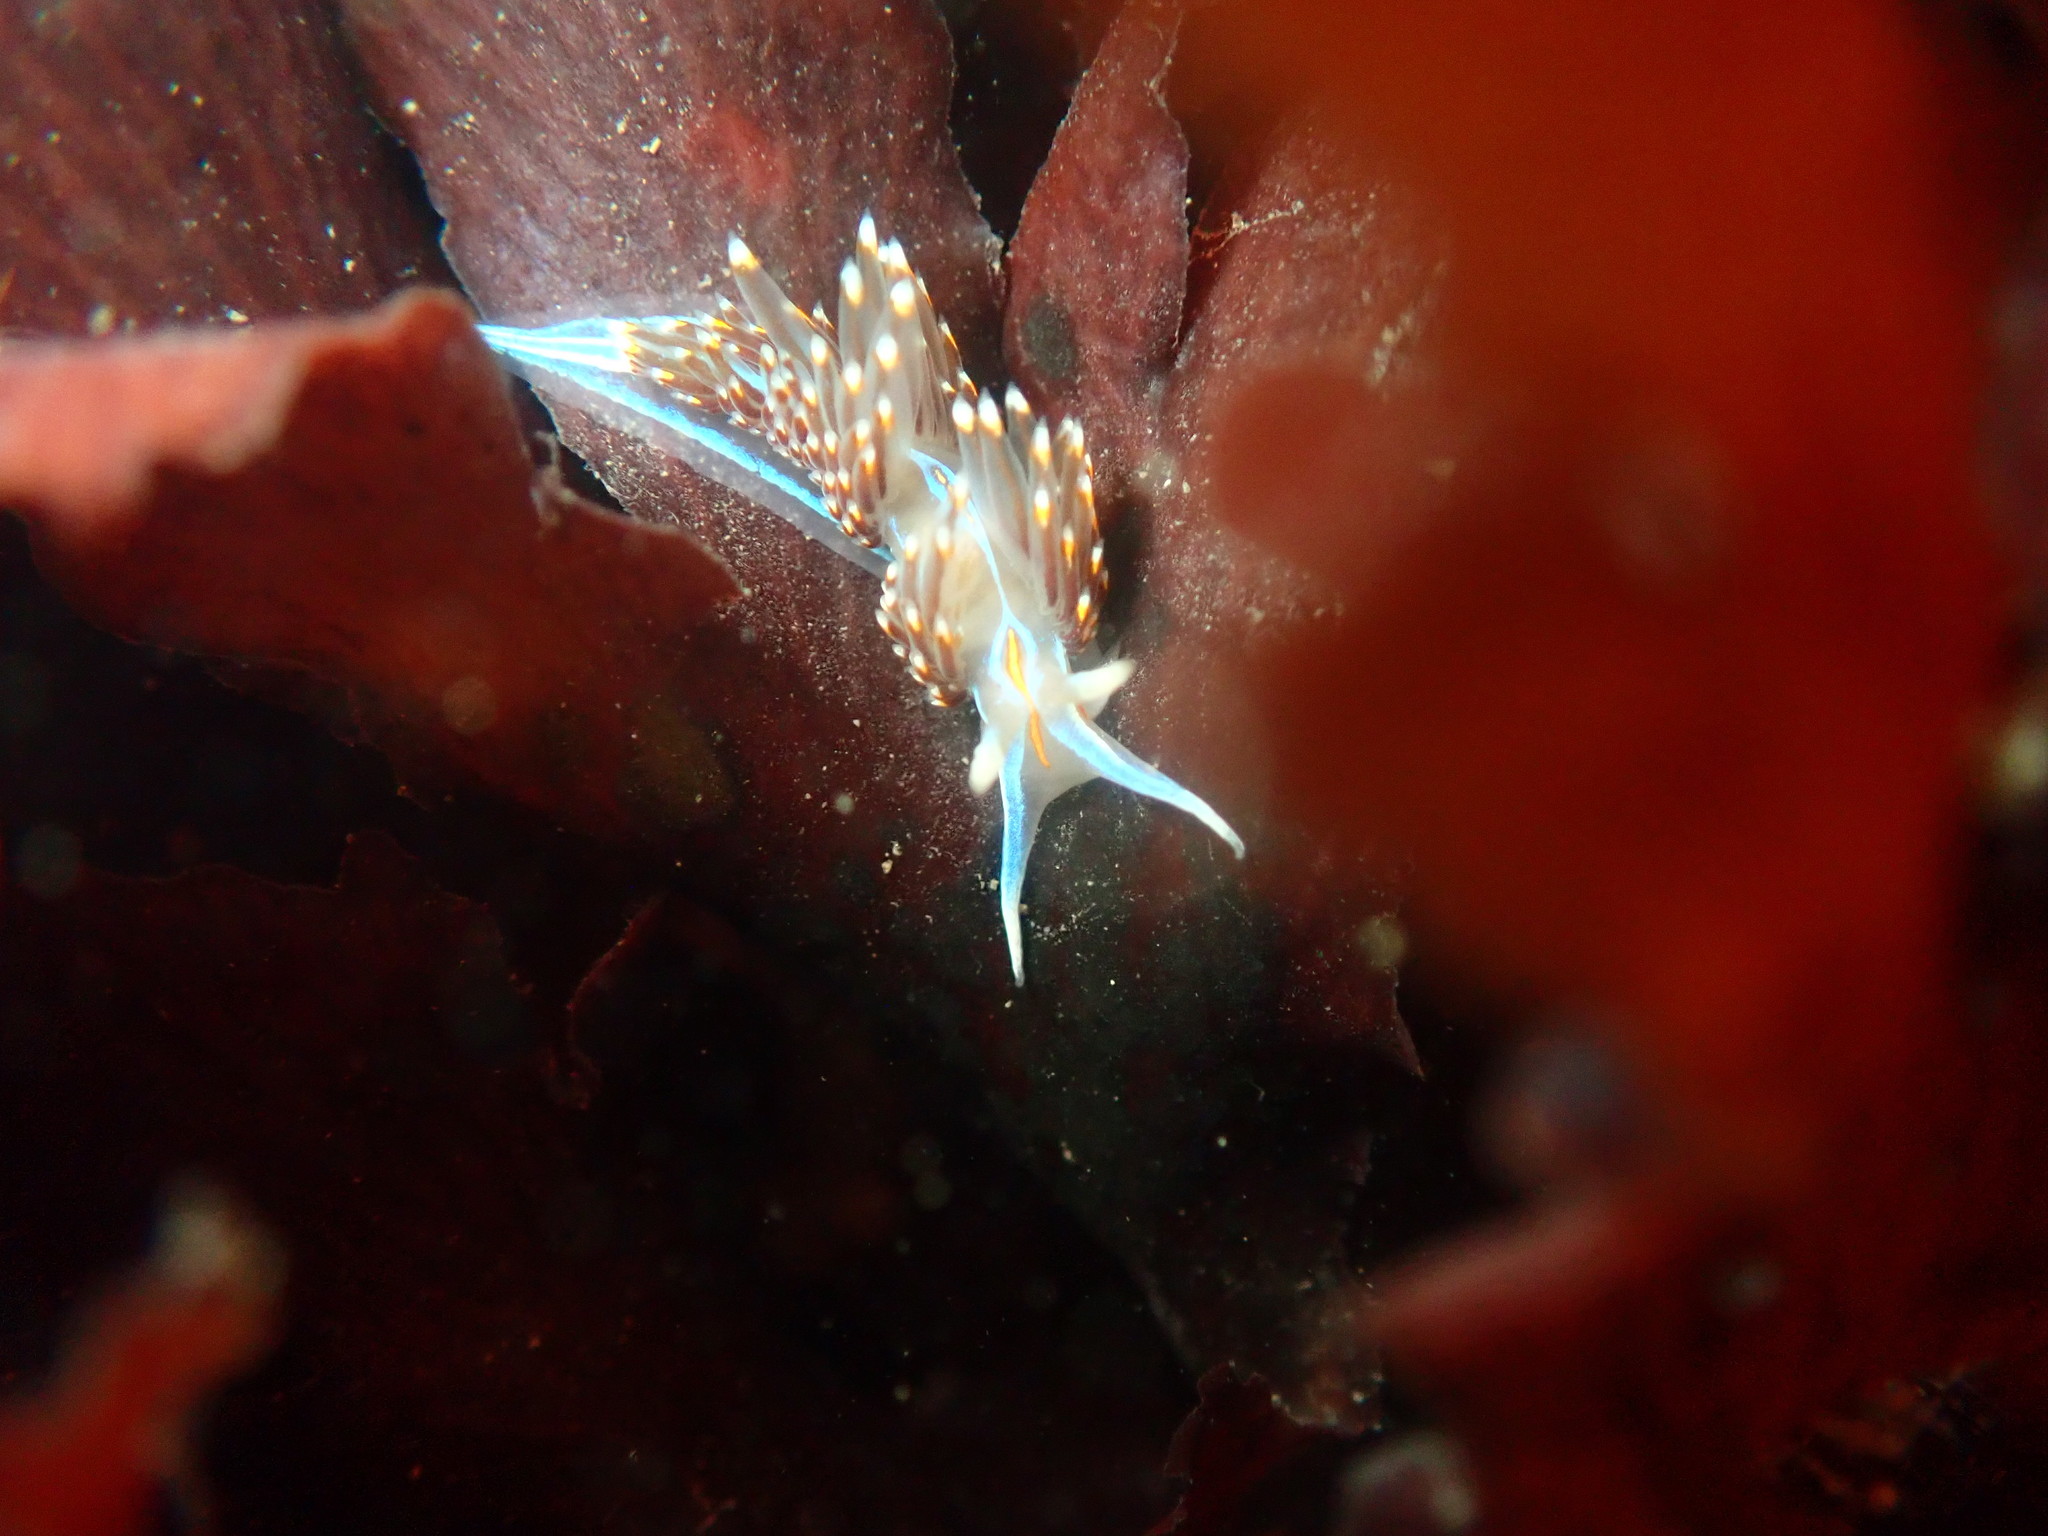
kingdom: Animalia
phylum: Mollusca
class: Gastropoda
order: Nudibranchia
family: Myrrhinidae
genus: Hermissenda
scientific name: Hermissenda opalescens
